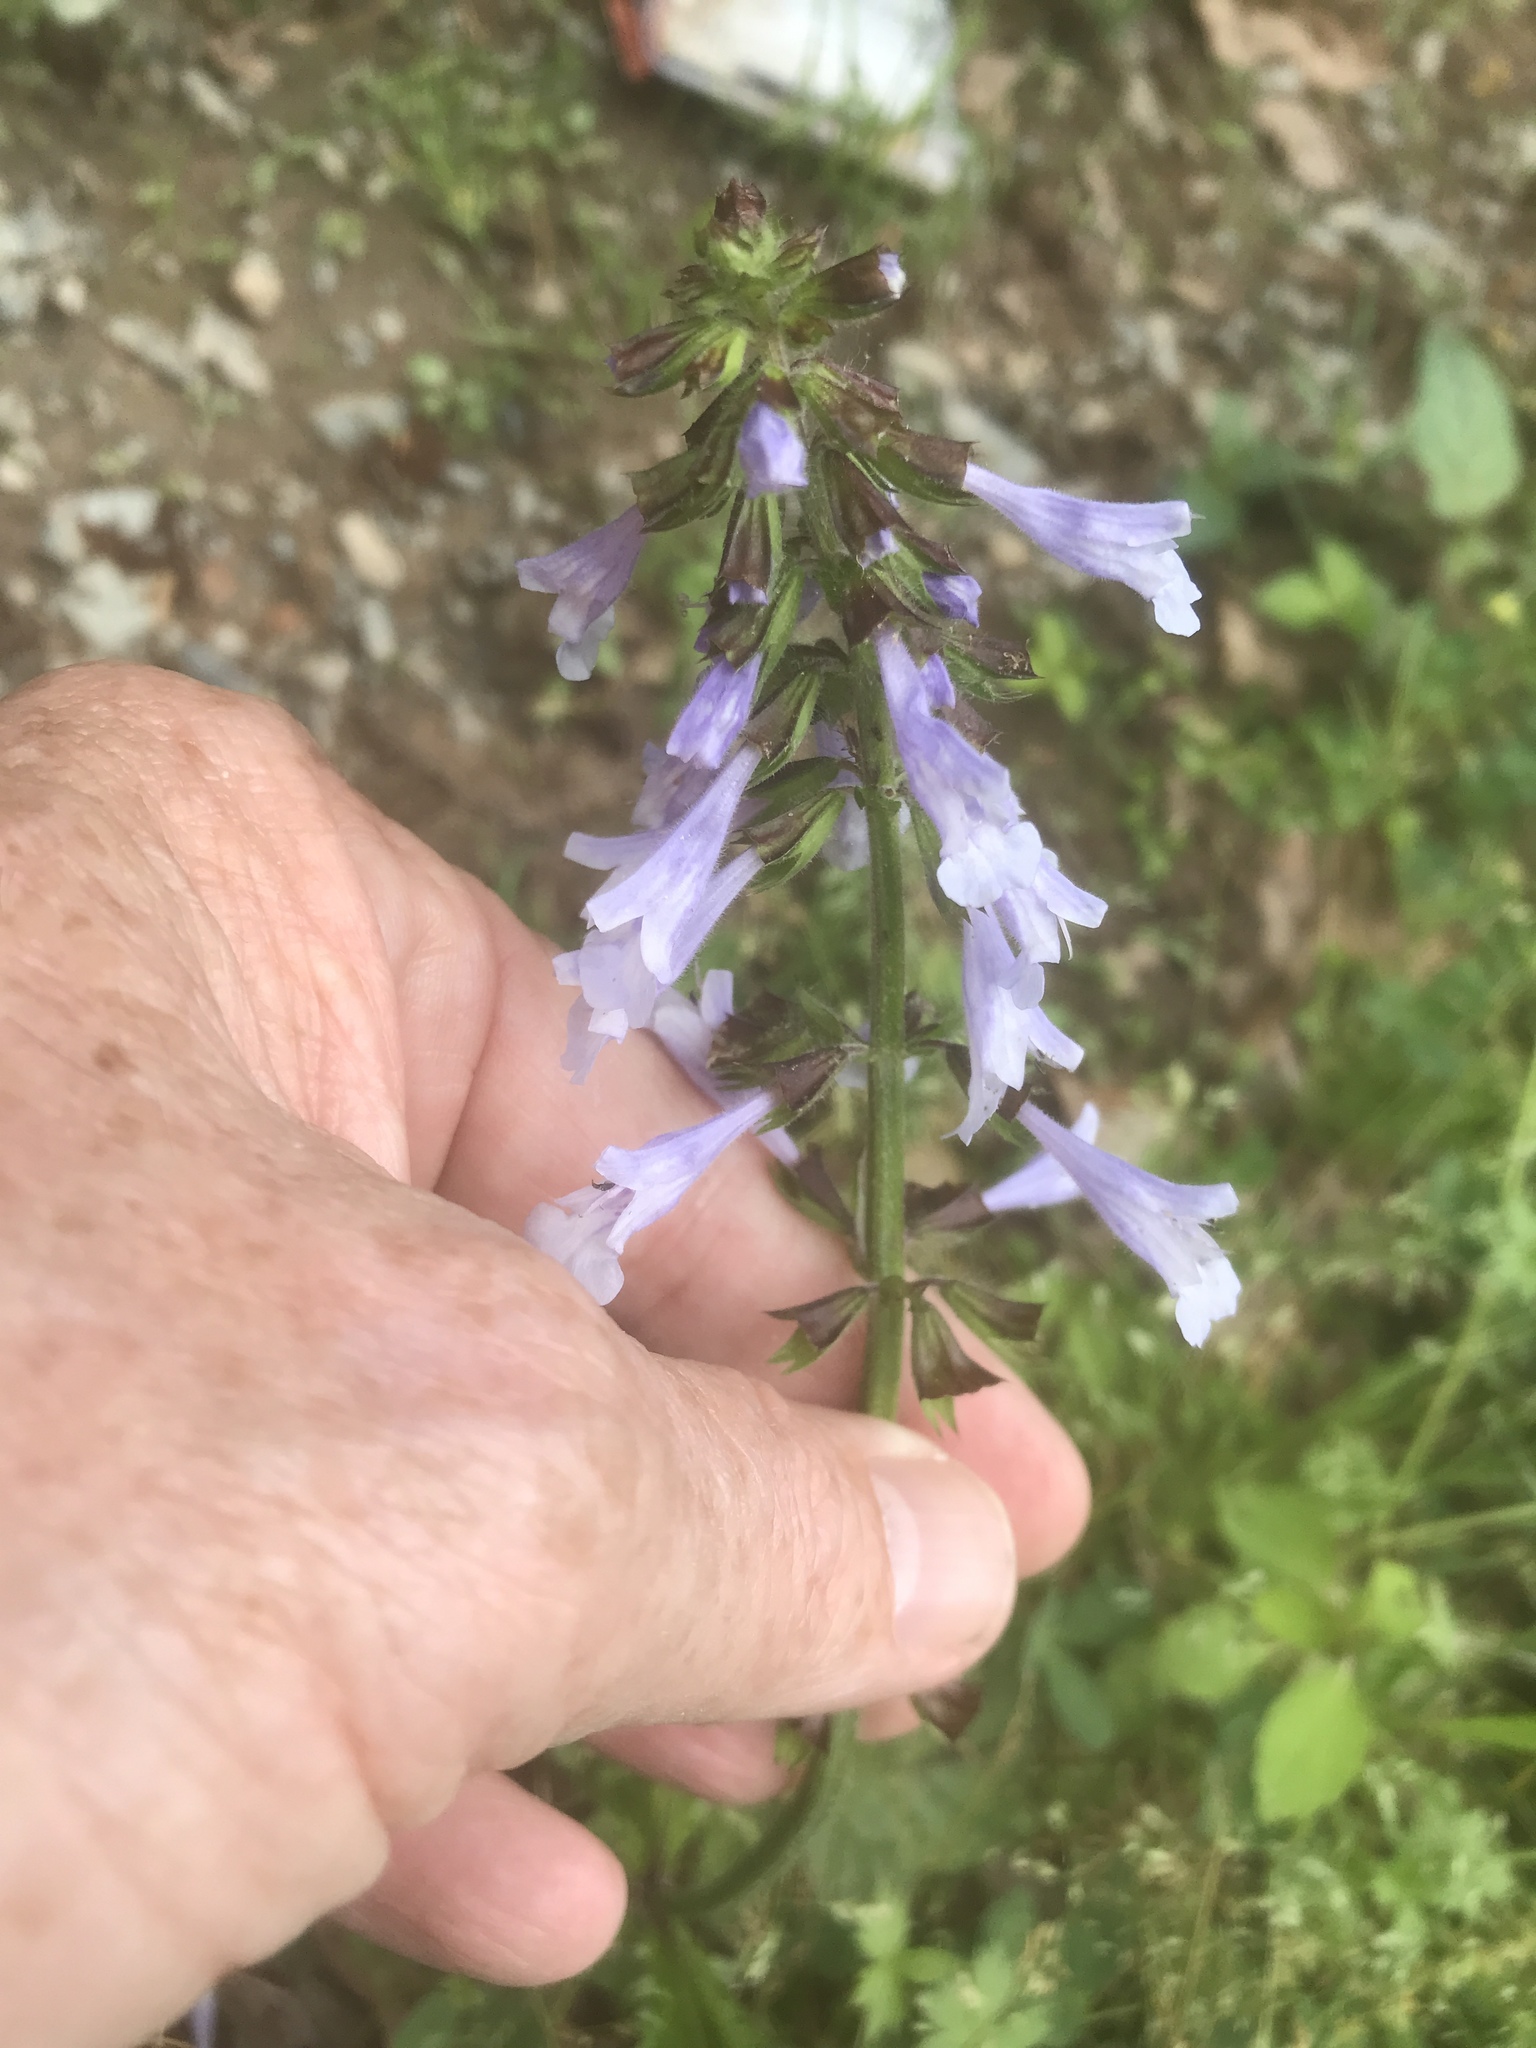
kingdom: Plantae
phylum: Tracheophyta
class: Magnoliopsida
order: Lamiales
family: Lamiaceae
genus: Salvia
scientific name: Salvia lyrata
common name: Cancerweed
